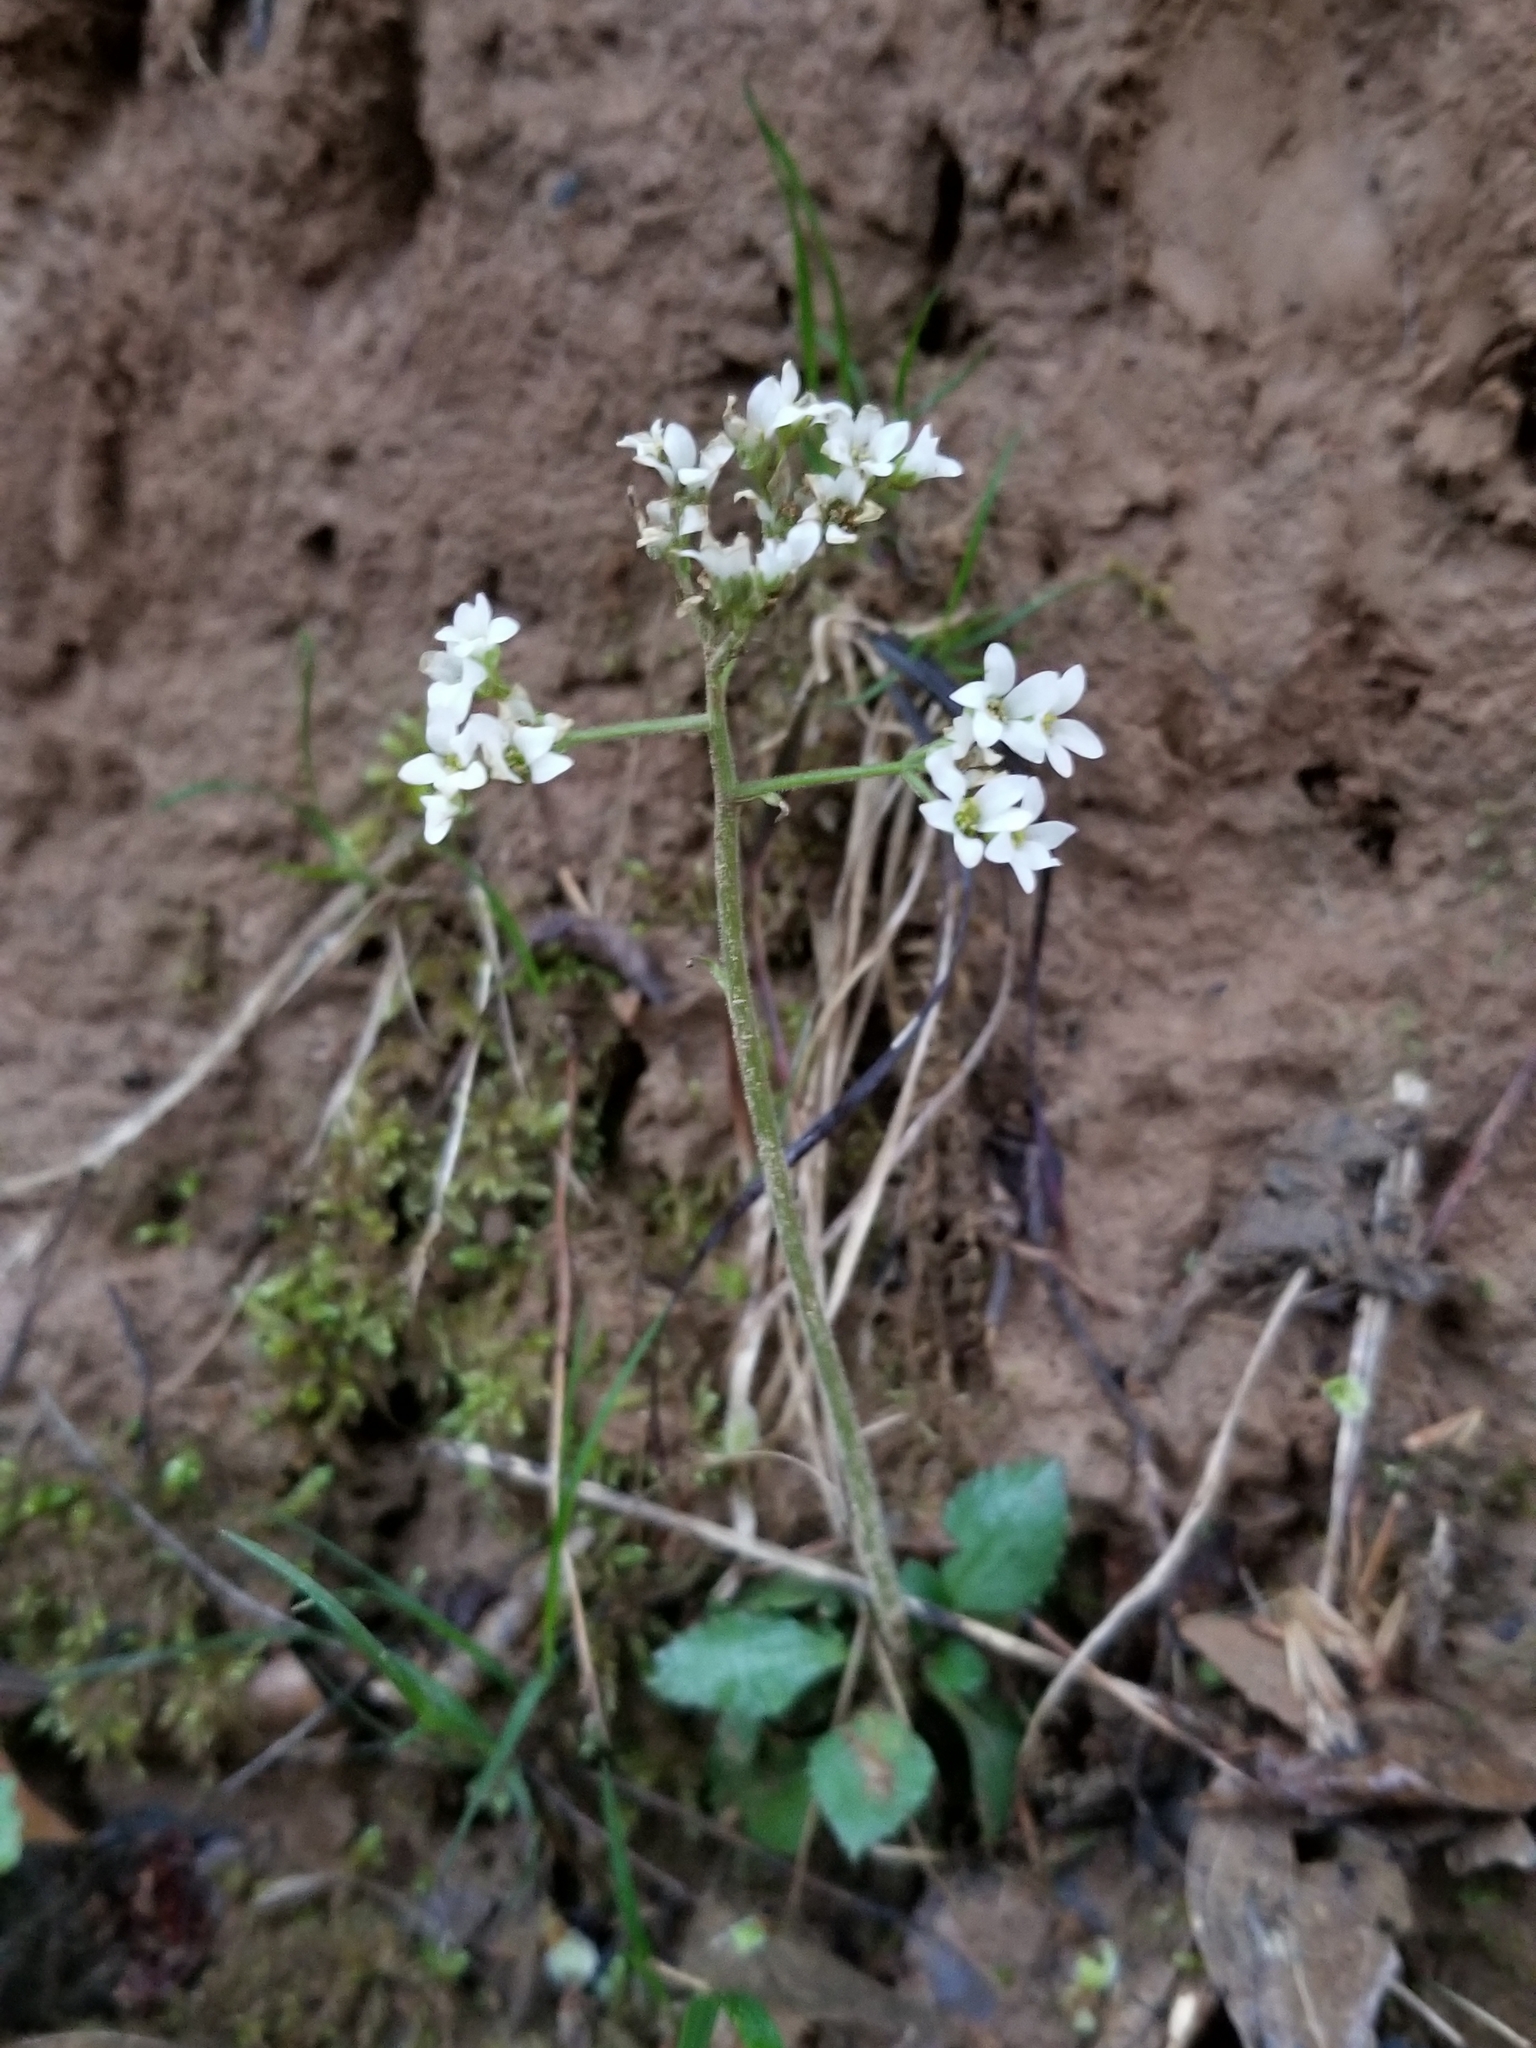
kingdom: Plantae
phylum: Tracheophyta
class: Magnoliopsida
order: Saxifragales
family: Saxifragaceae
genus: Micranthes
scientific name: Micranthes virginiensis
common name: Early saxifrage
